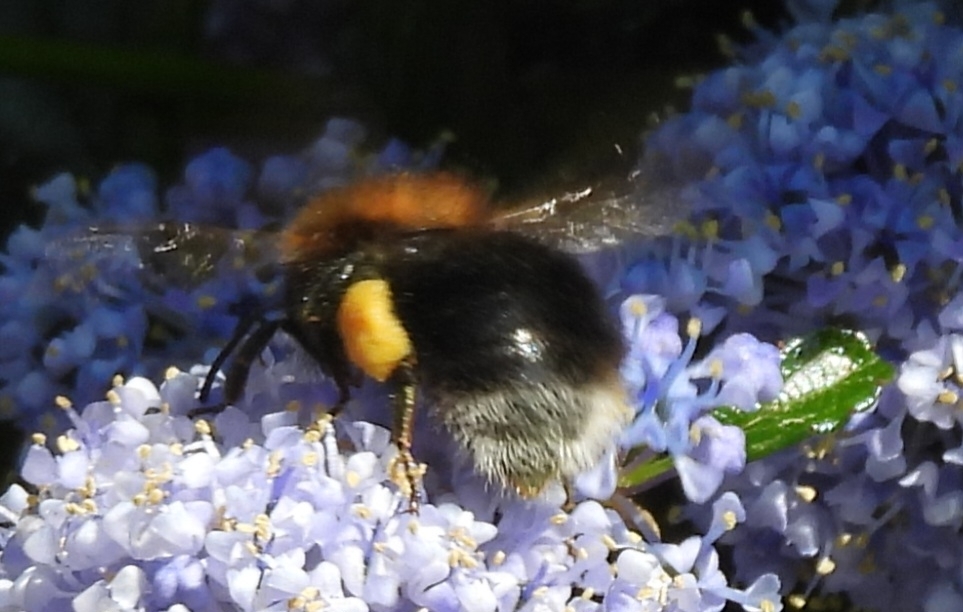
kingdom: Animalia
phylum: Arthropoda
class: Insecta
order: Hymenoptera
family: Apidae
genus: Bombus
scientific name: Bombus hypnorum
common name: New garden bumblebee
